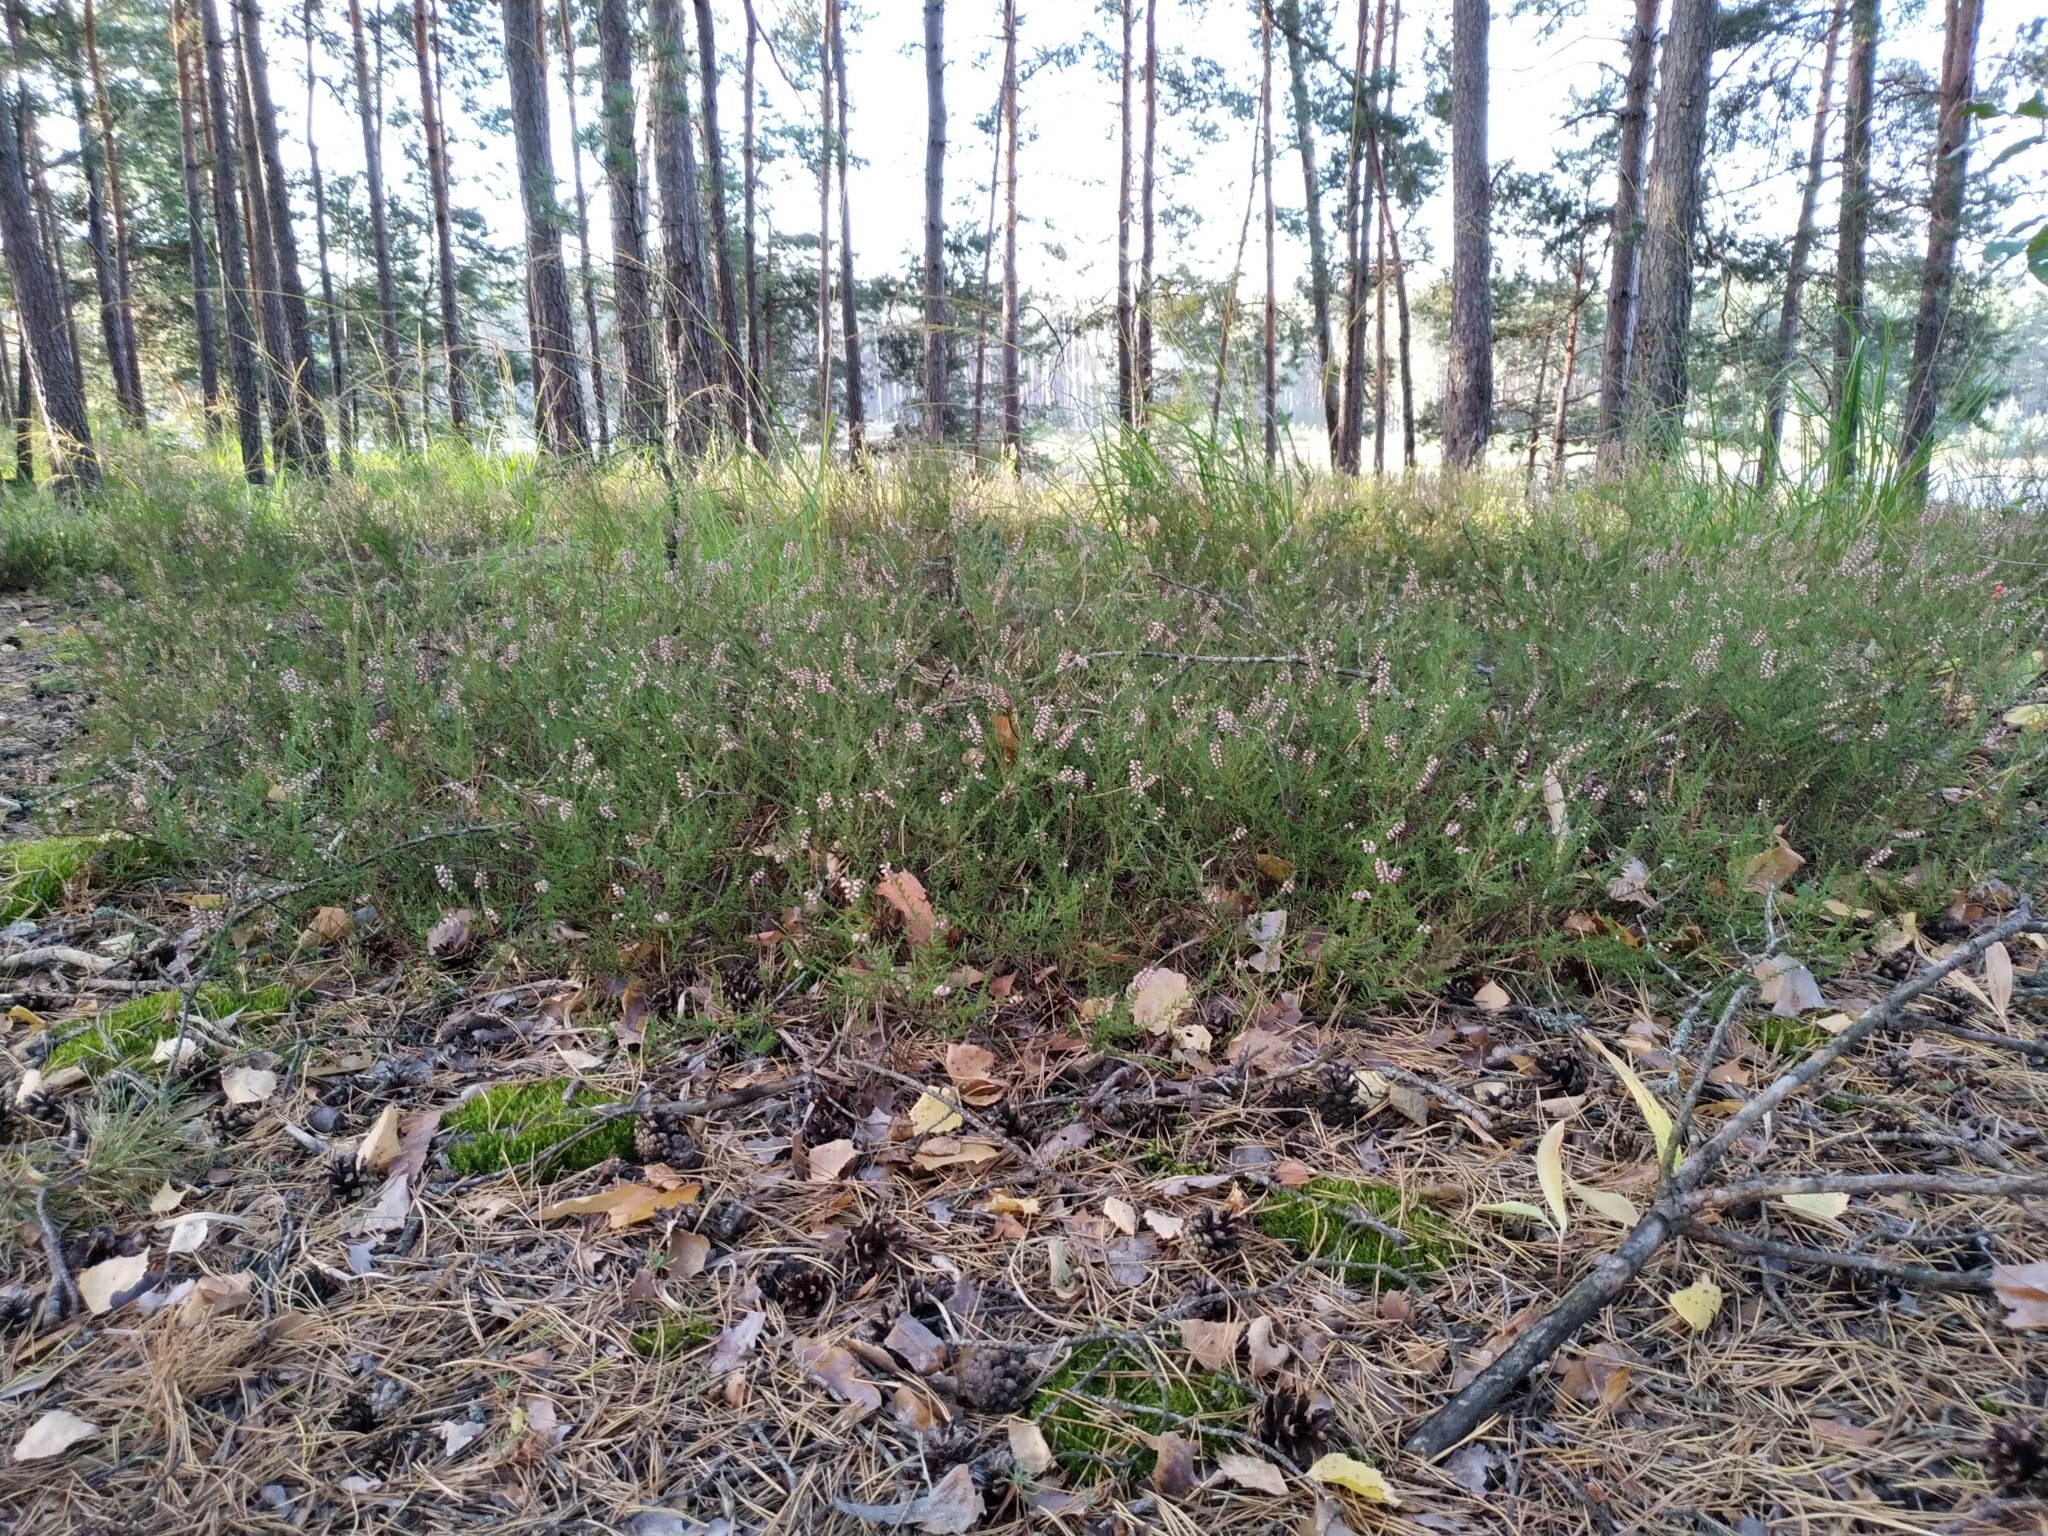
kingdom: Plantae
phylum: Tracheophyta
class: Magnoliopsida
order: Ericales
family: Ericaceae
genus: Calluna
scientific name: Calluna vulgaris
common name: Heather
